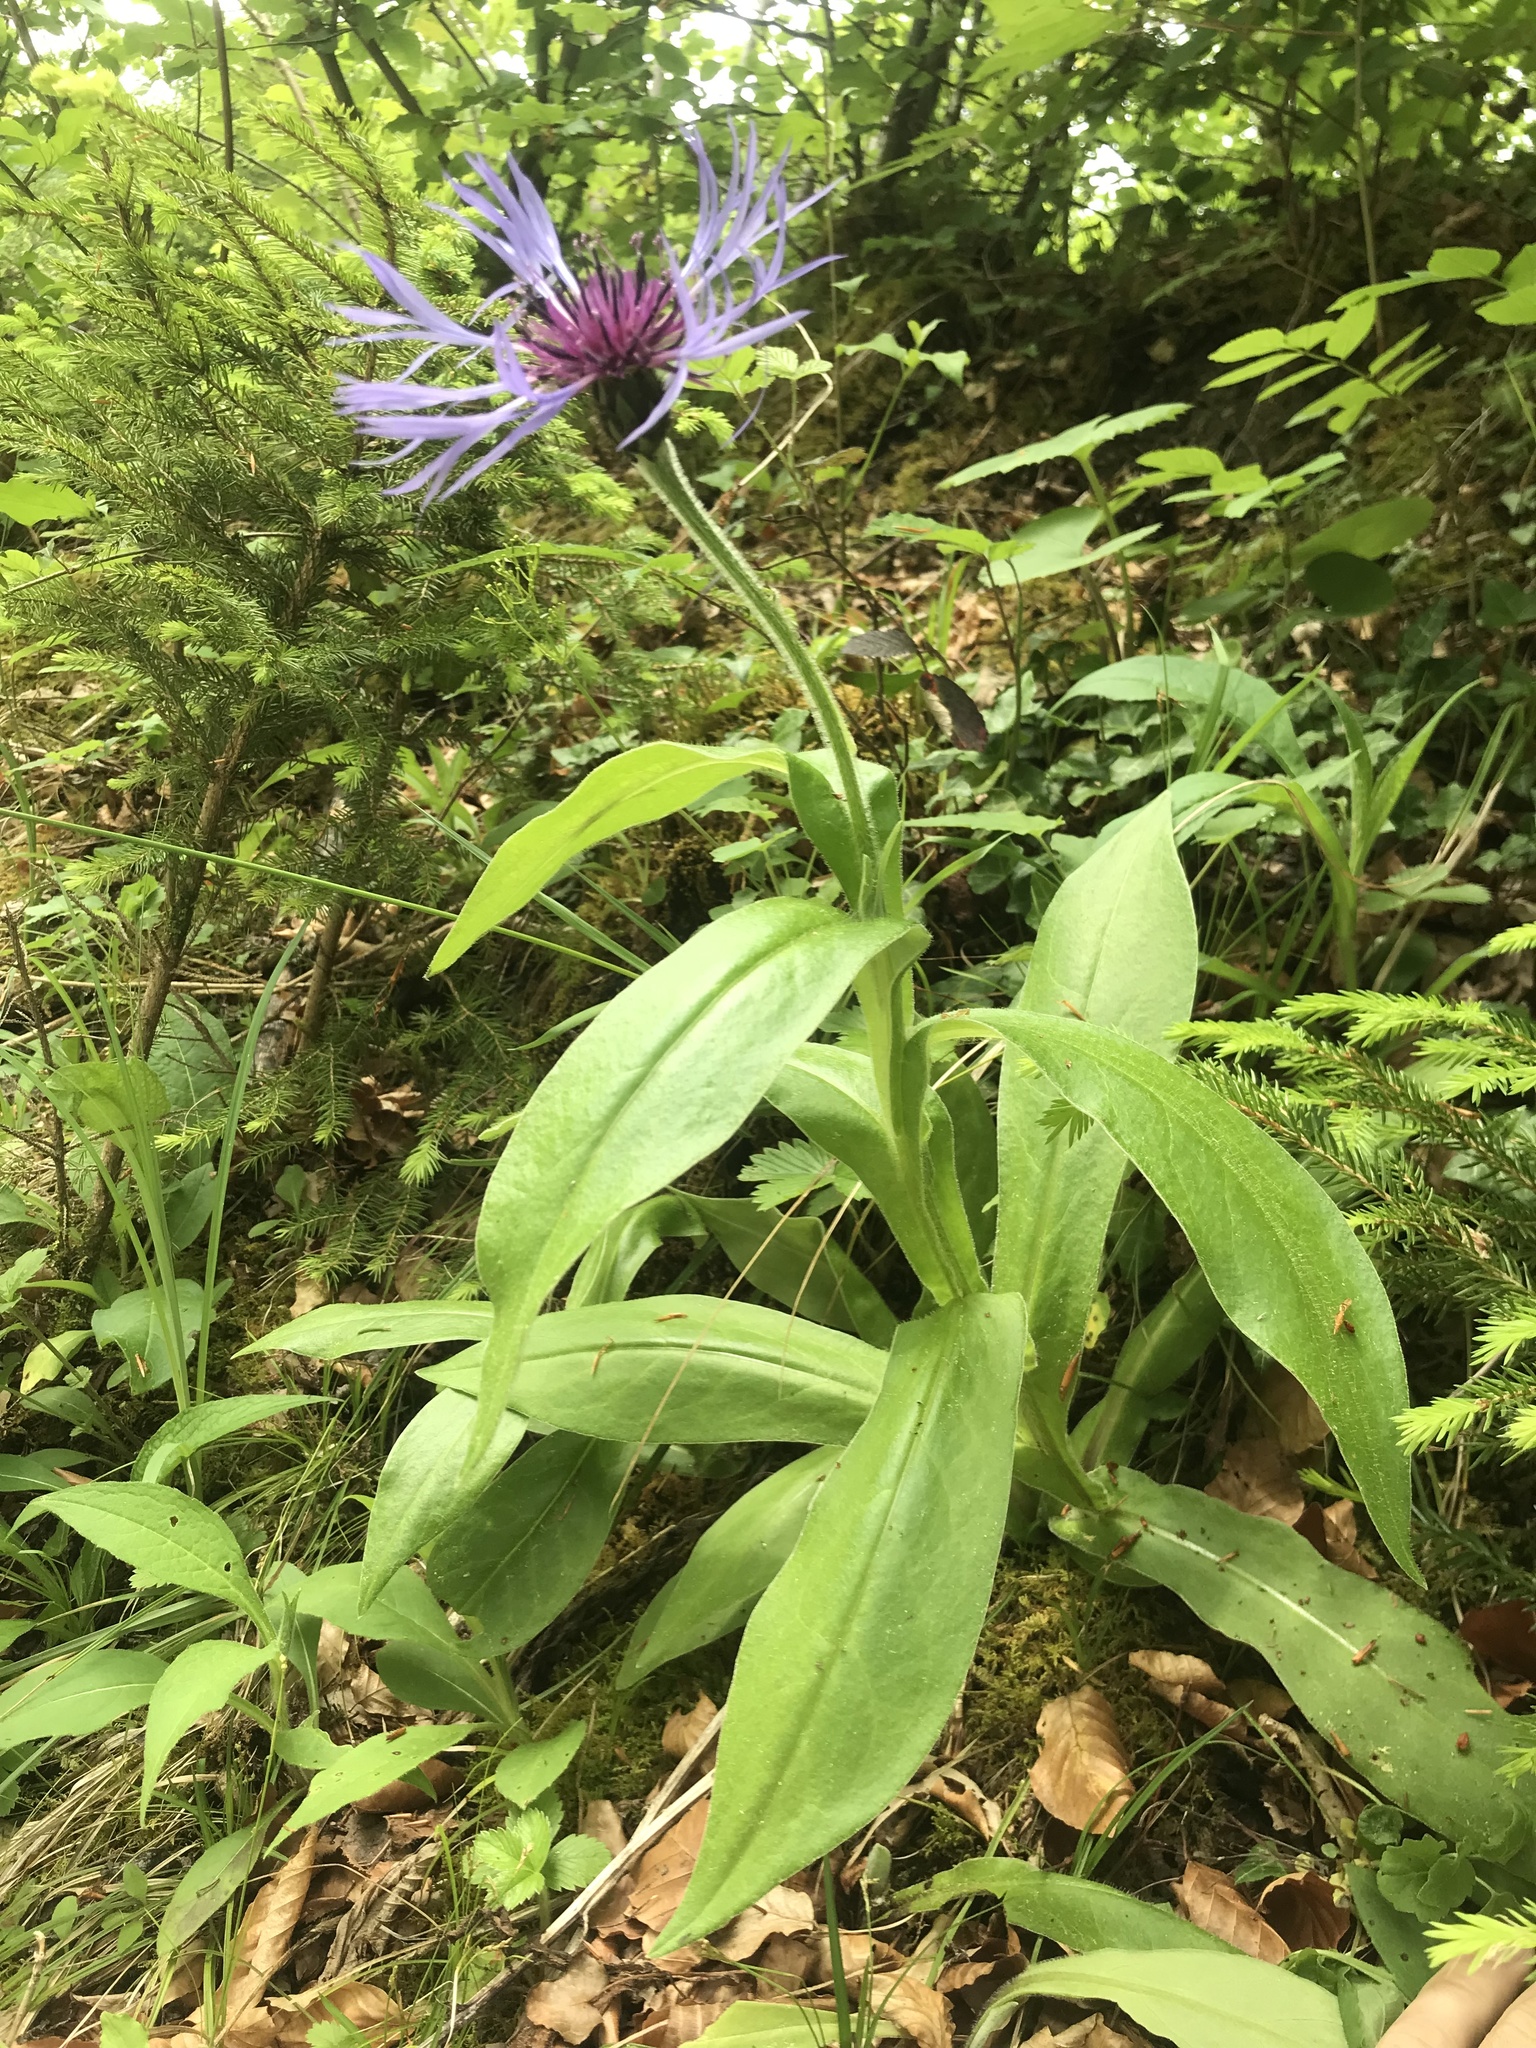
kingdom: Plantae
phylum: Tracheophyta
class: Magnoliopsida
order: Asterales
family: Asteraceae
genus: Centaurea
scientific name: Centaurea montana
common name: Perennial cornflower
